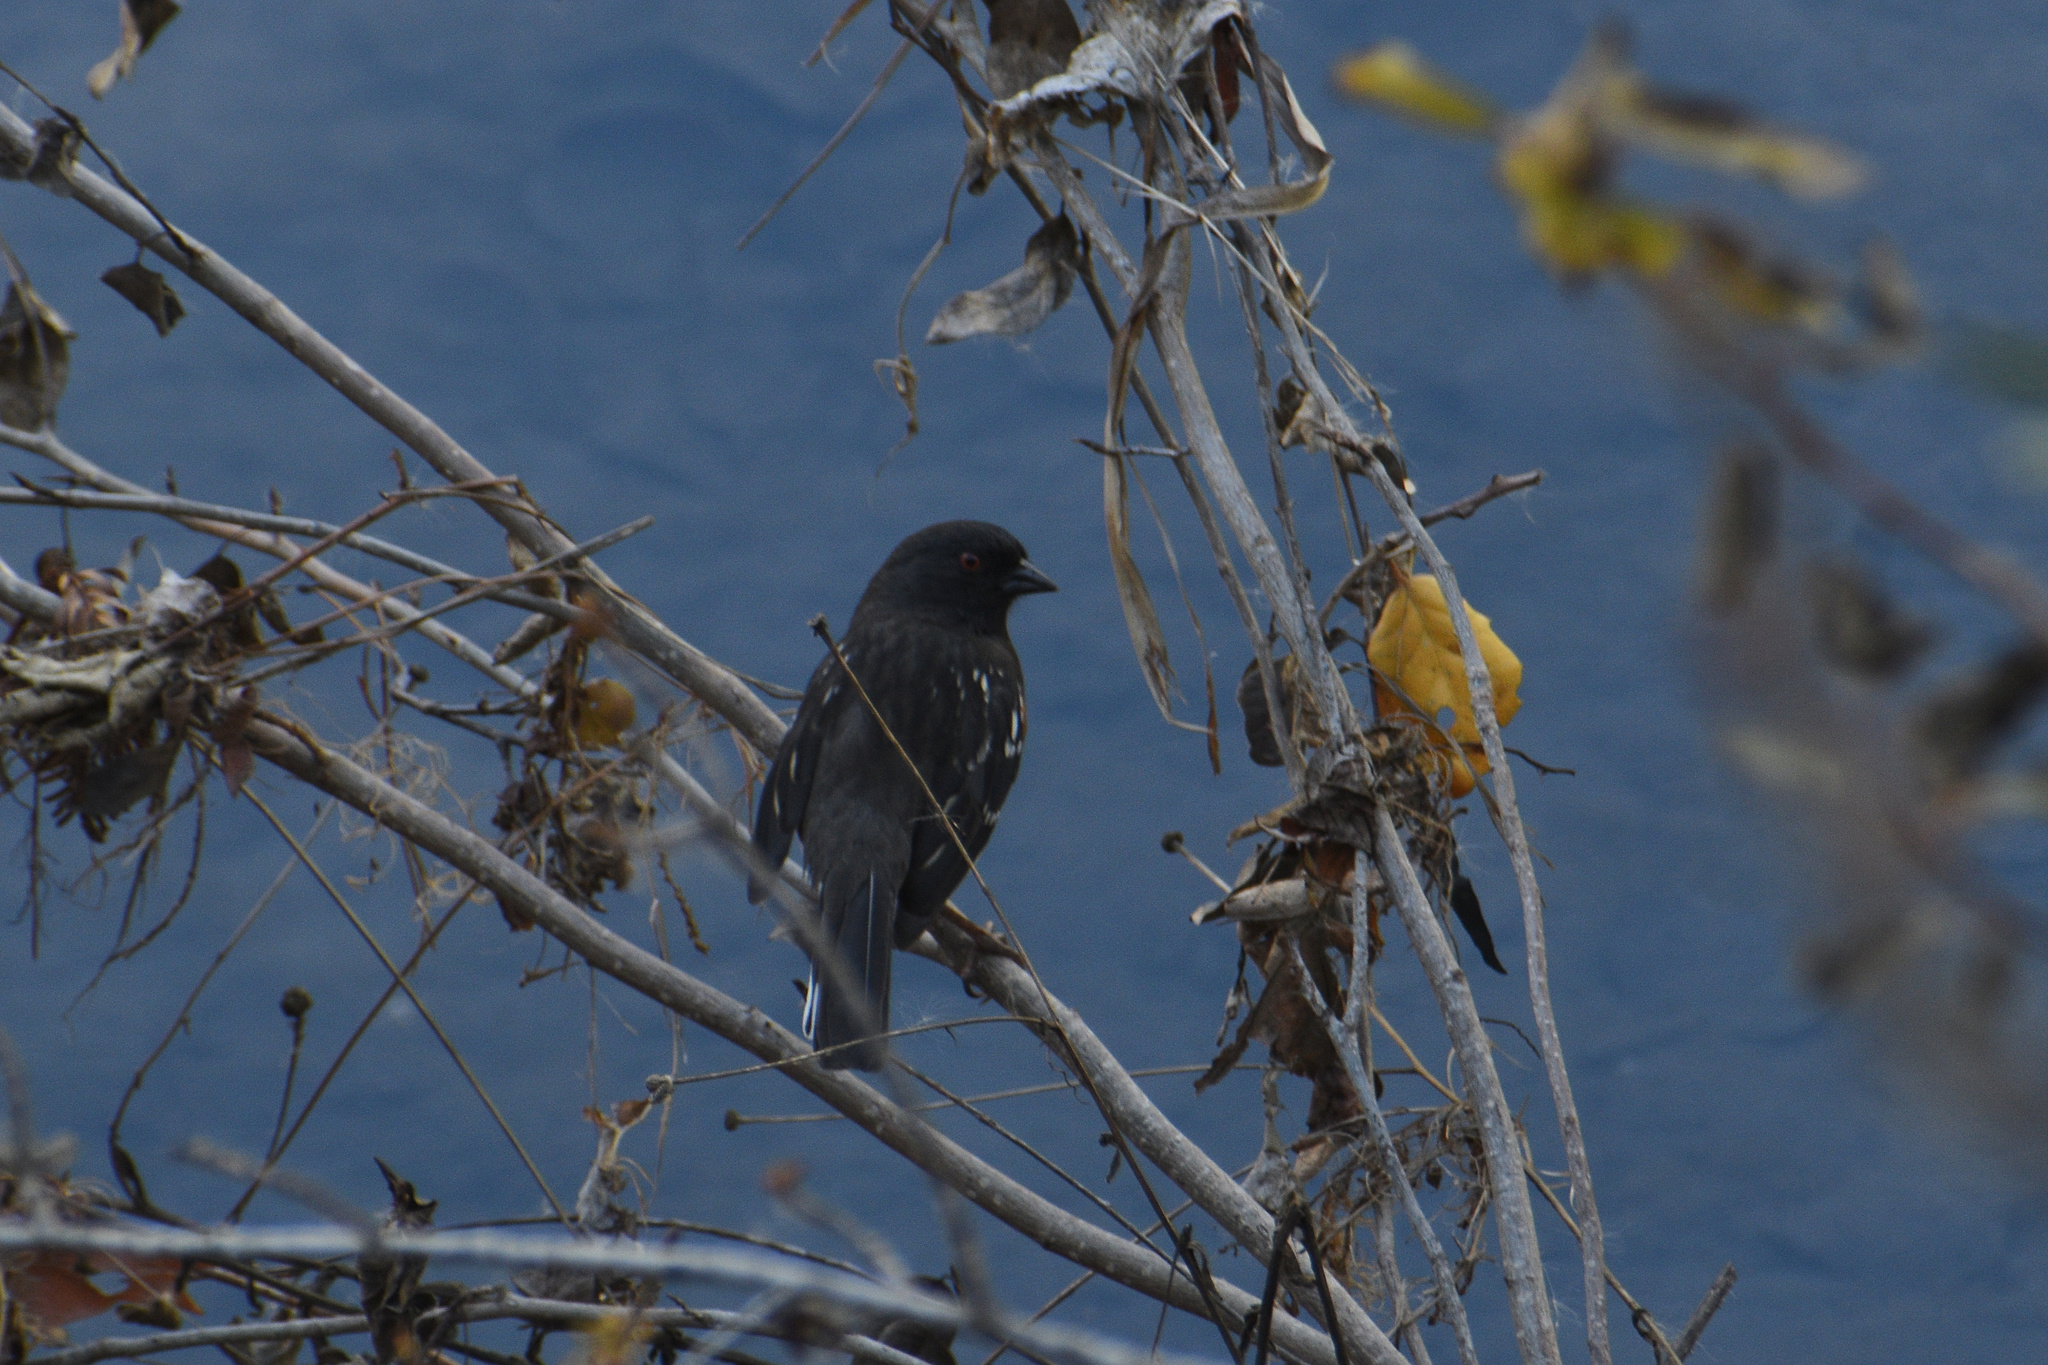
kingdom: Animalia
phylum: Chordata
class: Aves
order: Passeriformes
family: Passerellidae
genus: Pipilo
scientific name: Pipilo maculatus
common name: Spotted towhee
